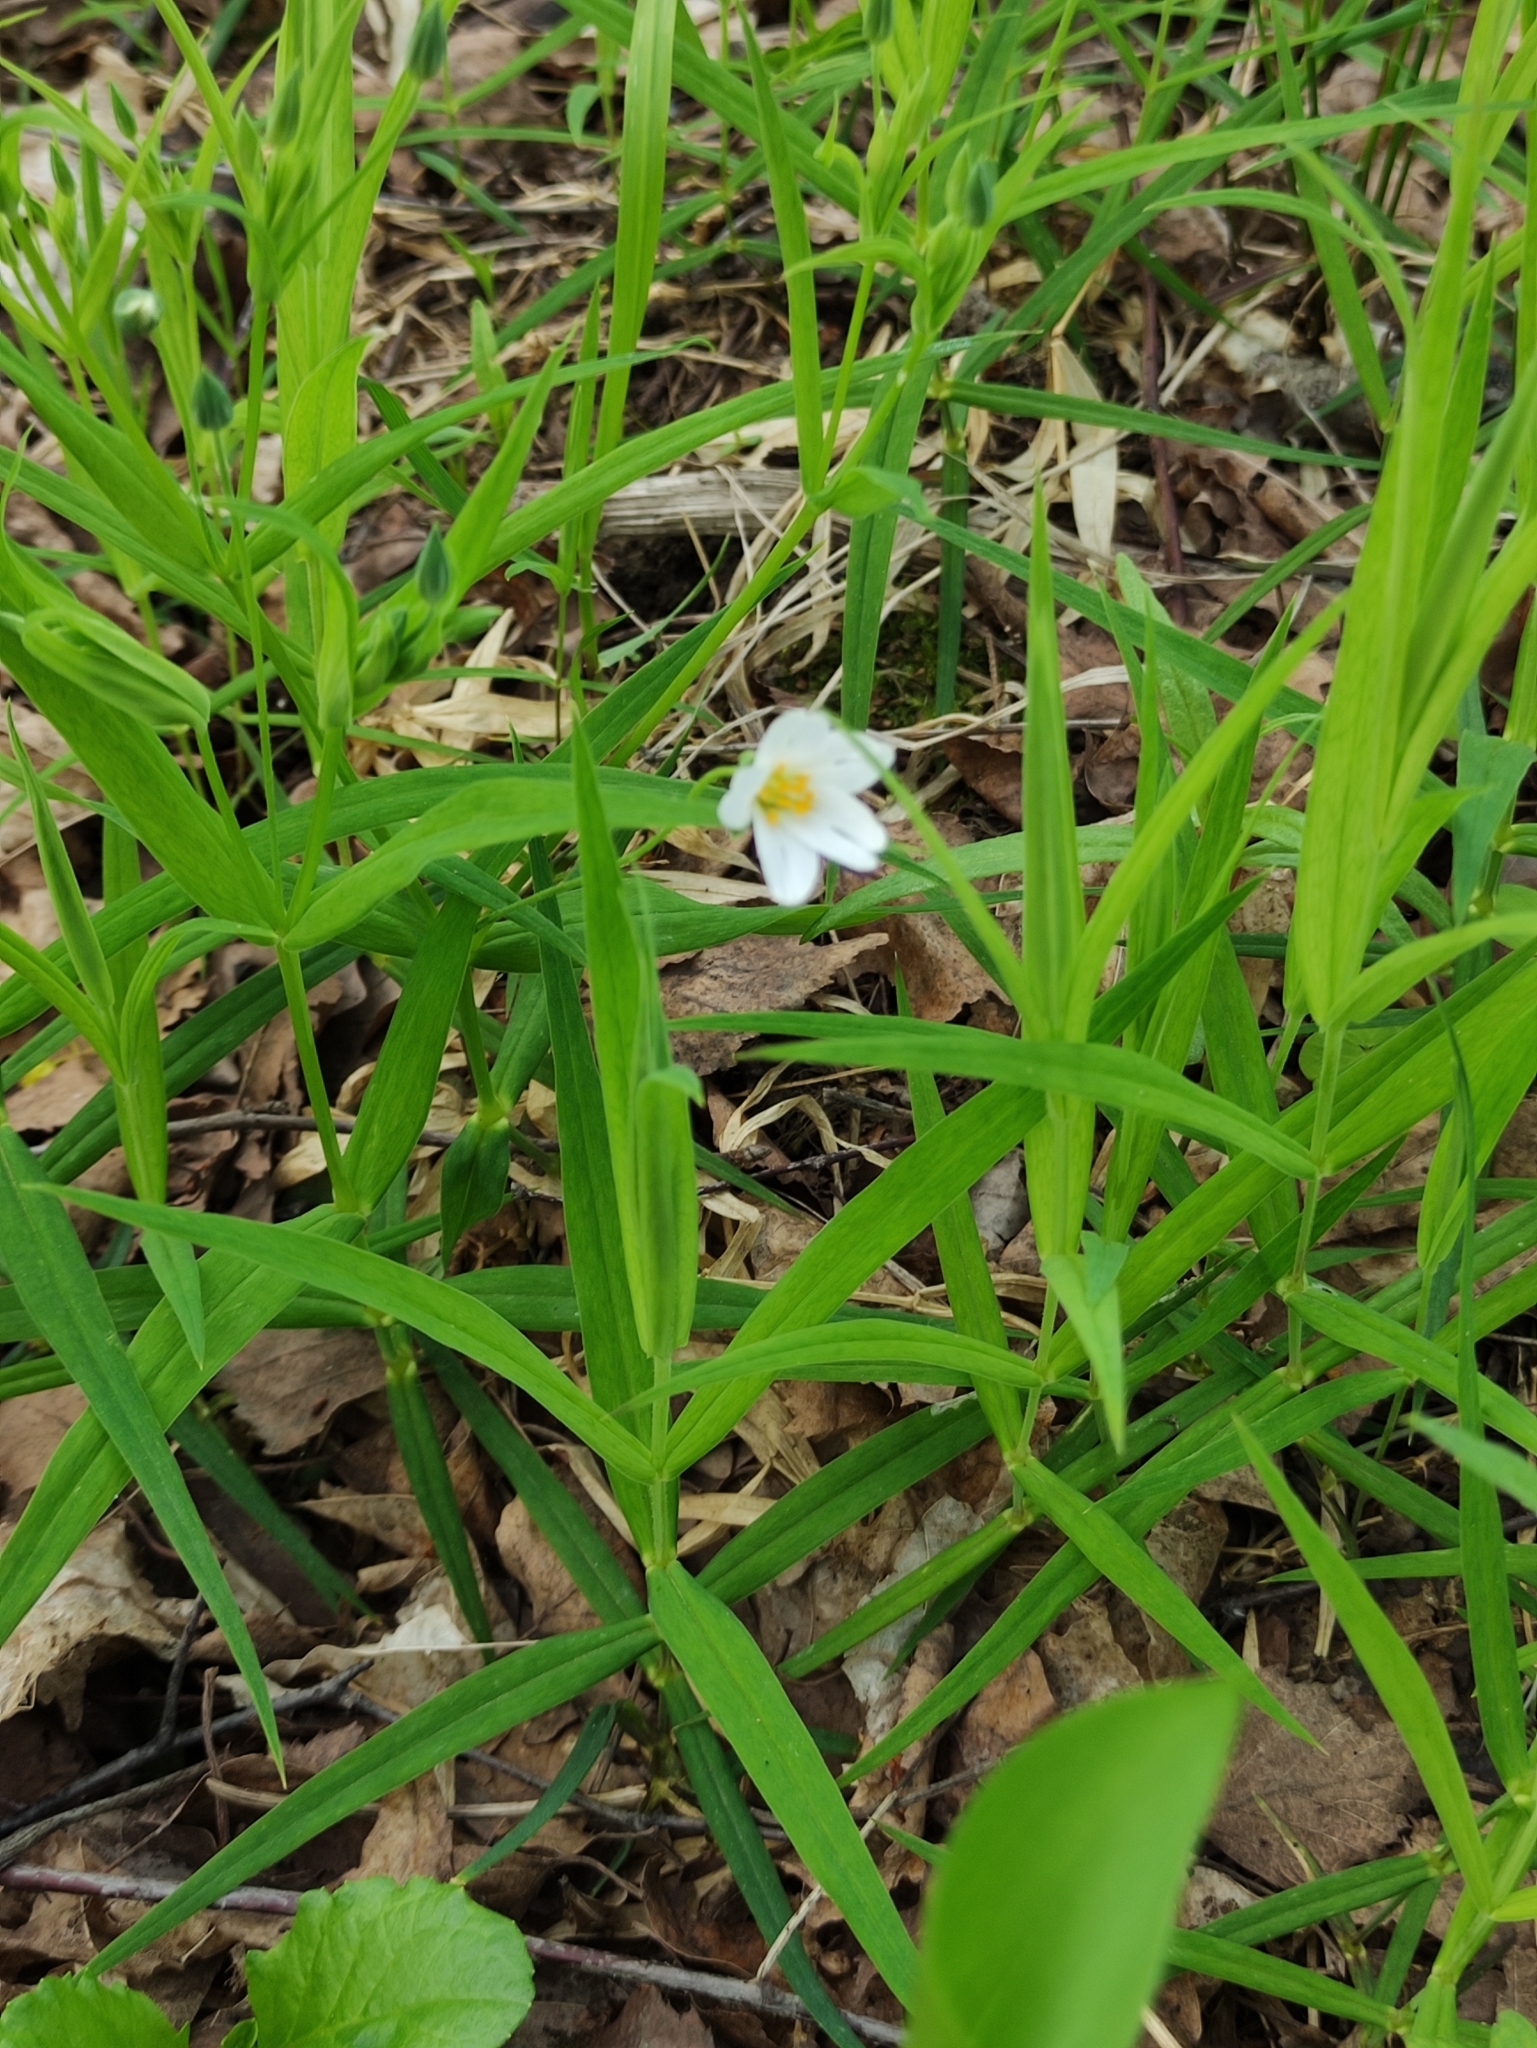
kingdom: Plantae
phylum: Tracheophyta
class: Magnoliopsida
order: Caryophyllales
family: Caryophyllaceae
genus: Rabelera
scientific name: Rabelera holostea
